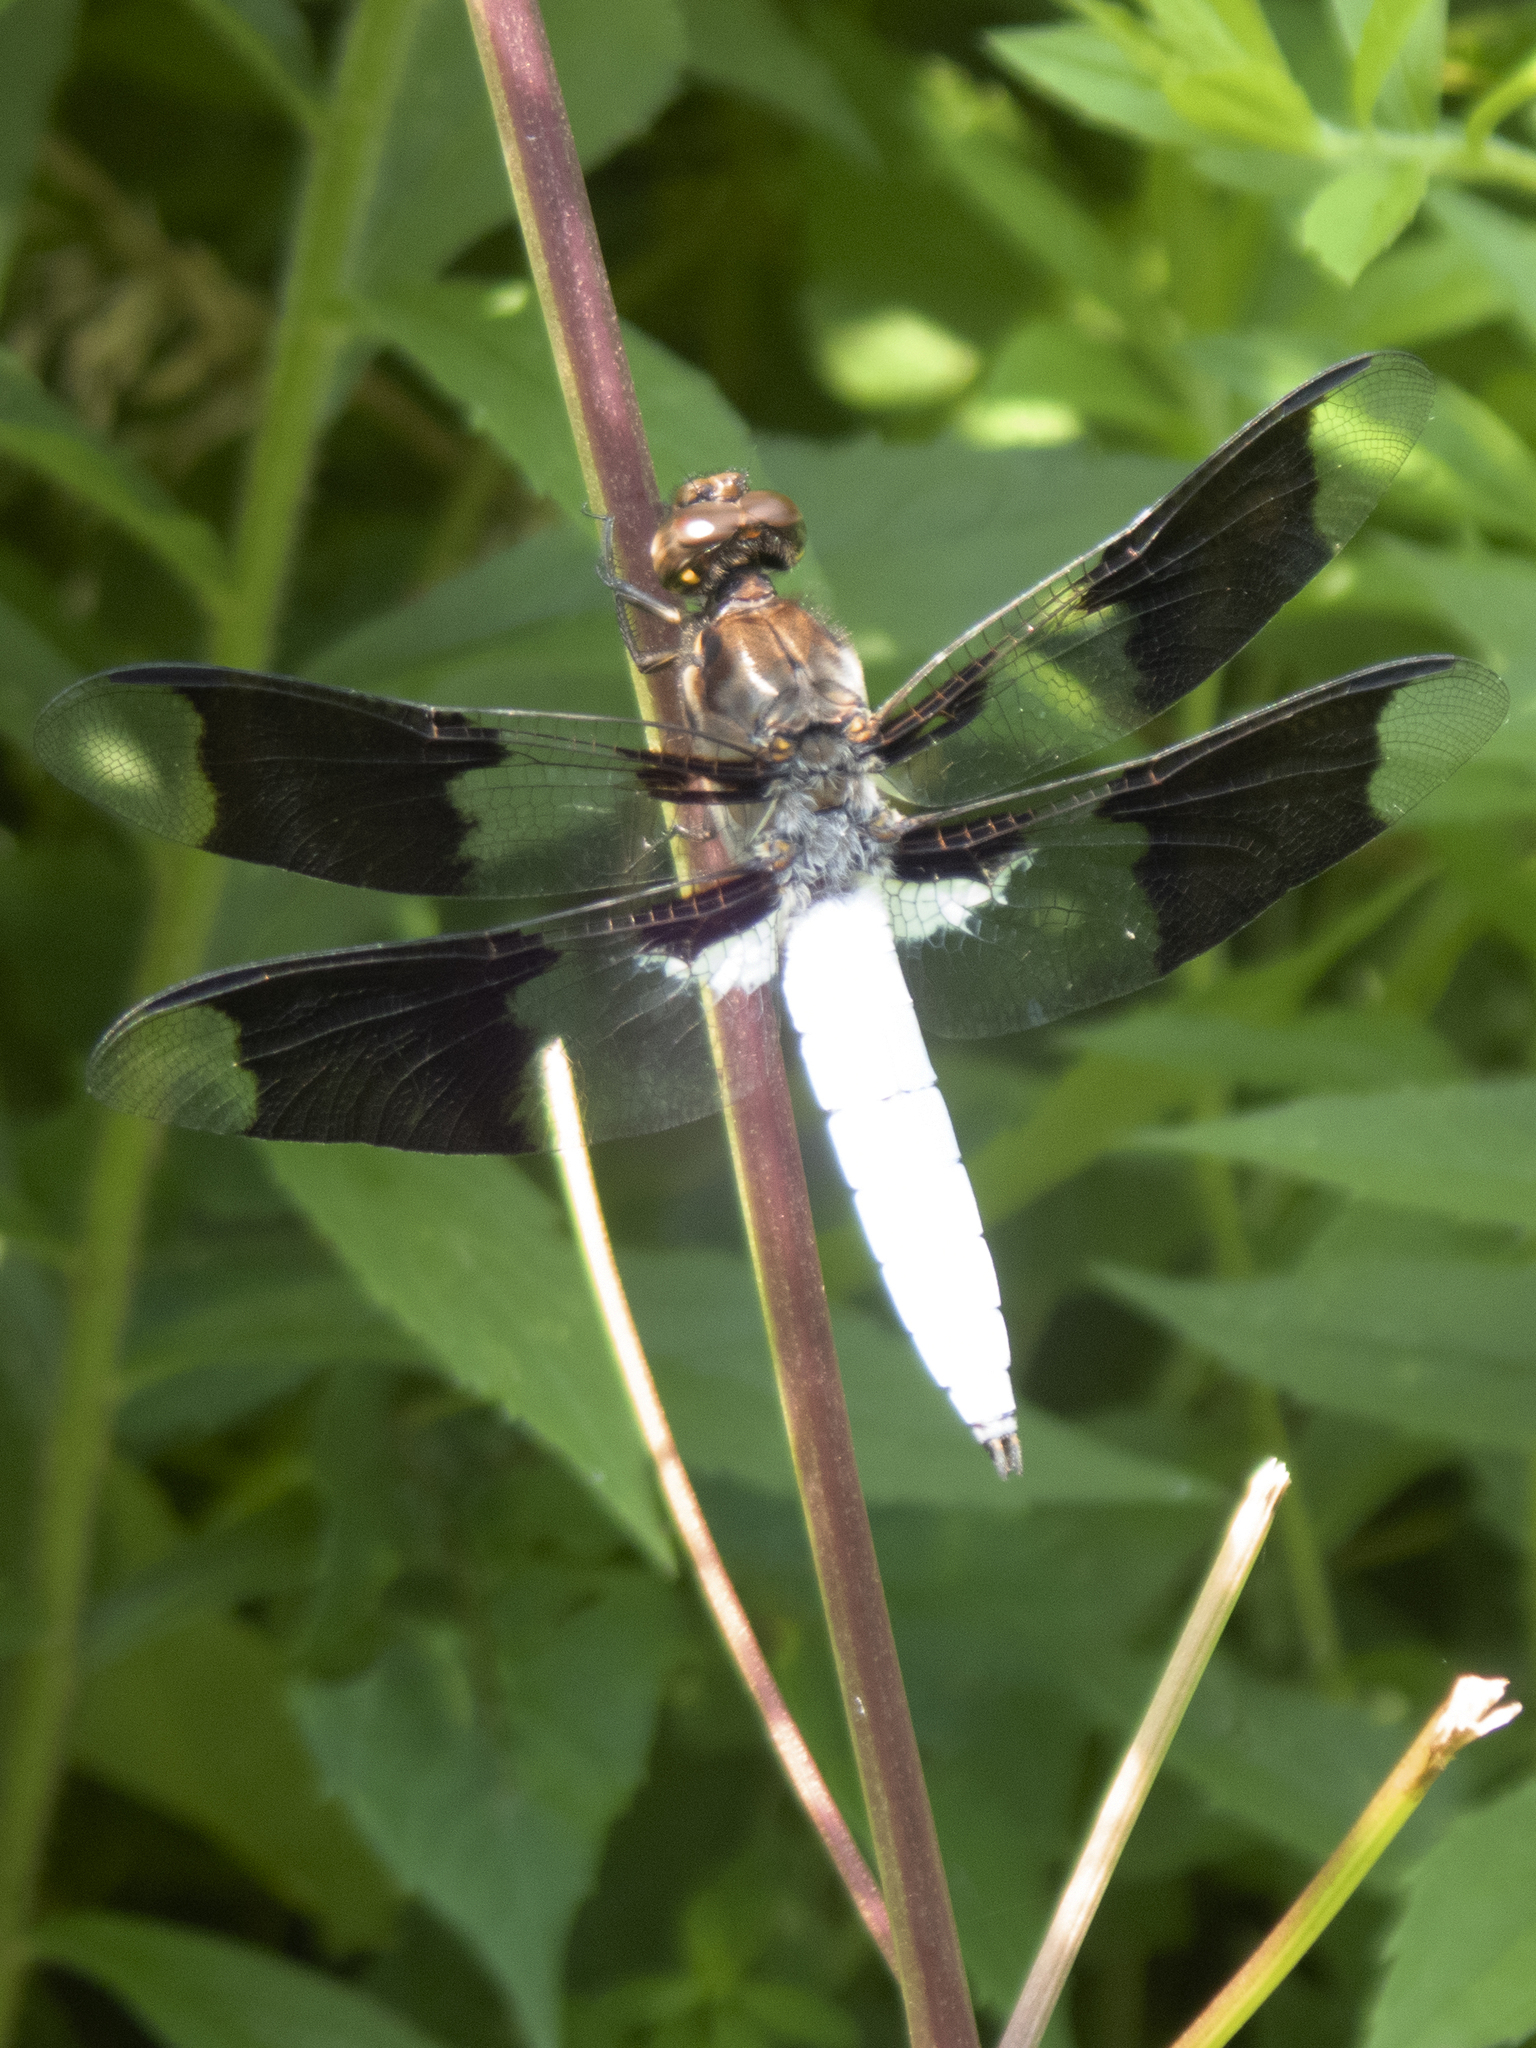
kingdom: Animalia
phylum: Arthropoda
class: Insecta
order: Odonata
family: Libellulidae
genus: Plathemis
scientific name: Plathemis lydia
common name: Common whitetail
